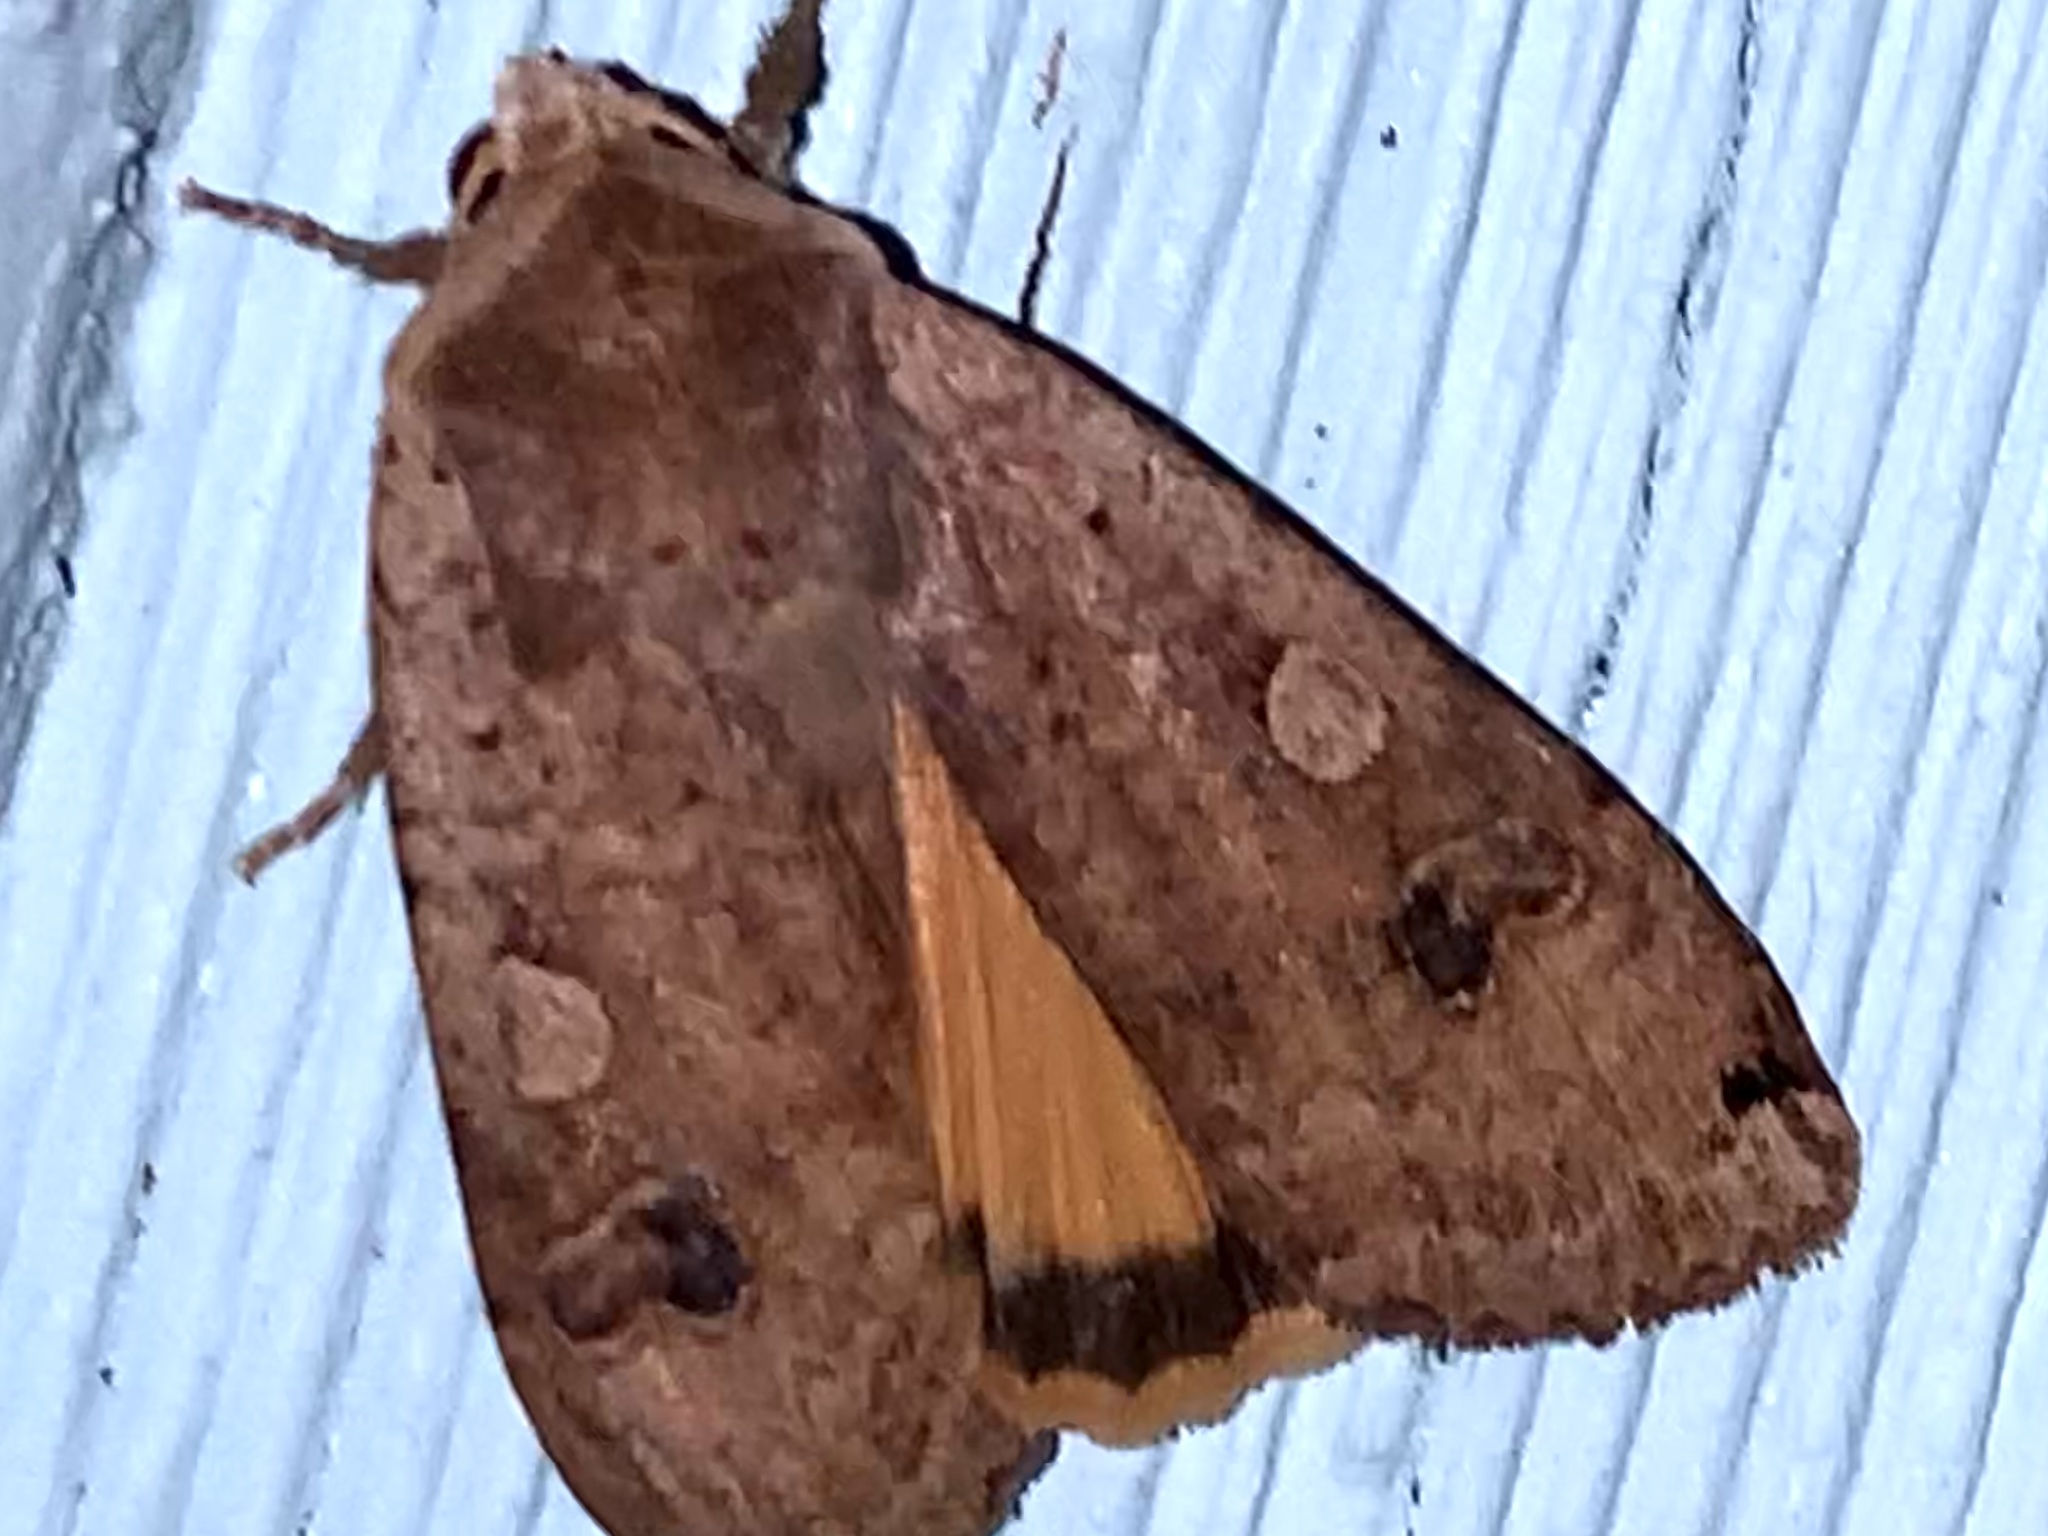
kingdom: Animalia
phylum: Arthropoda
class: Insecta
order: Lepidoptera
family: Noctuidae
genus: Noctua
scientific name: Noctua pronuba
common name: Large yellow underwing
